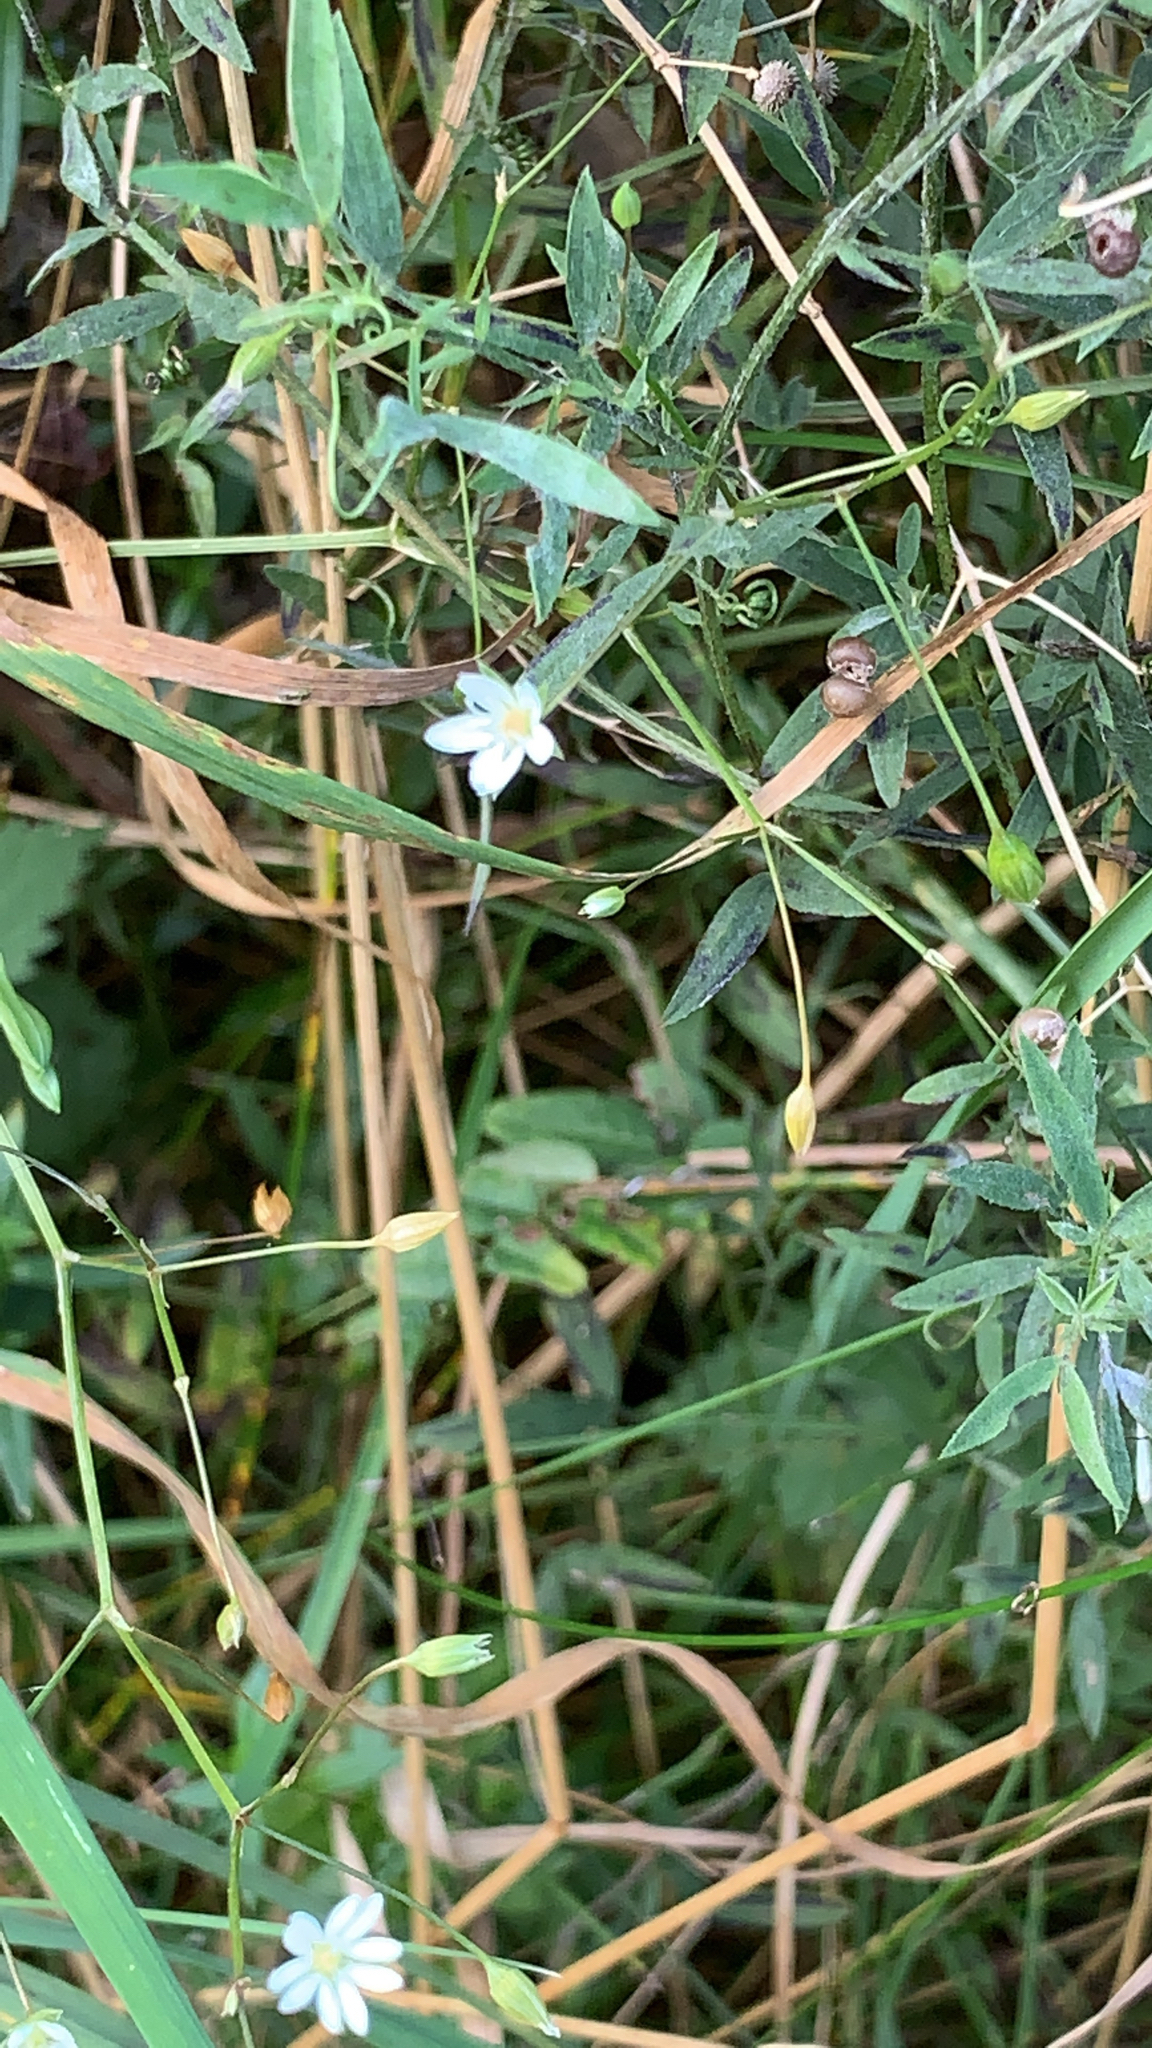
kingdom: Plantae
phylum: Tracheophyta
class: Magnoliopsida
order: Caryophyllales
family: Caryophyllaceae
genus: Stellaria
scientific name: Stellaria graminea
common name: Grass-like starwort
